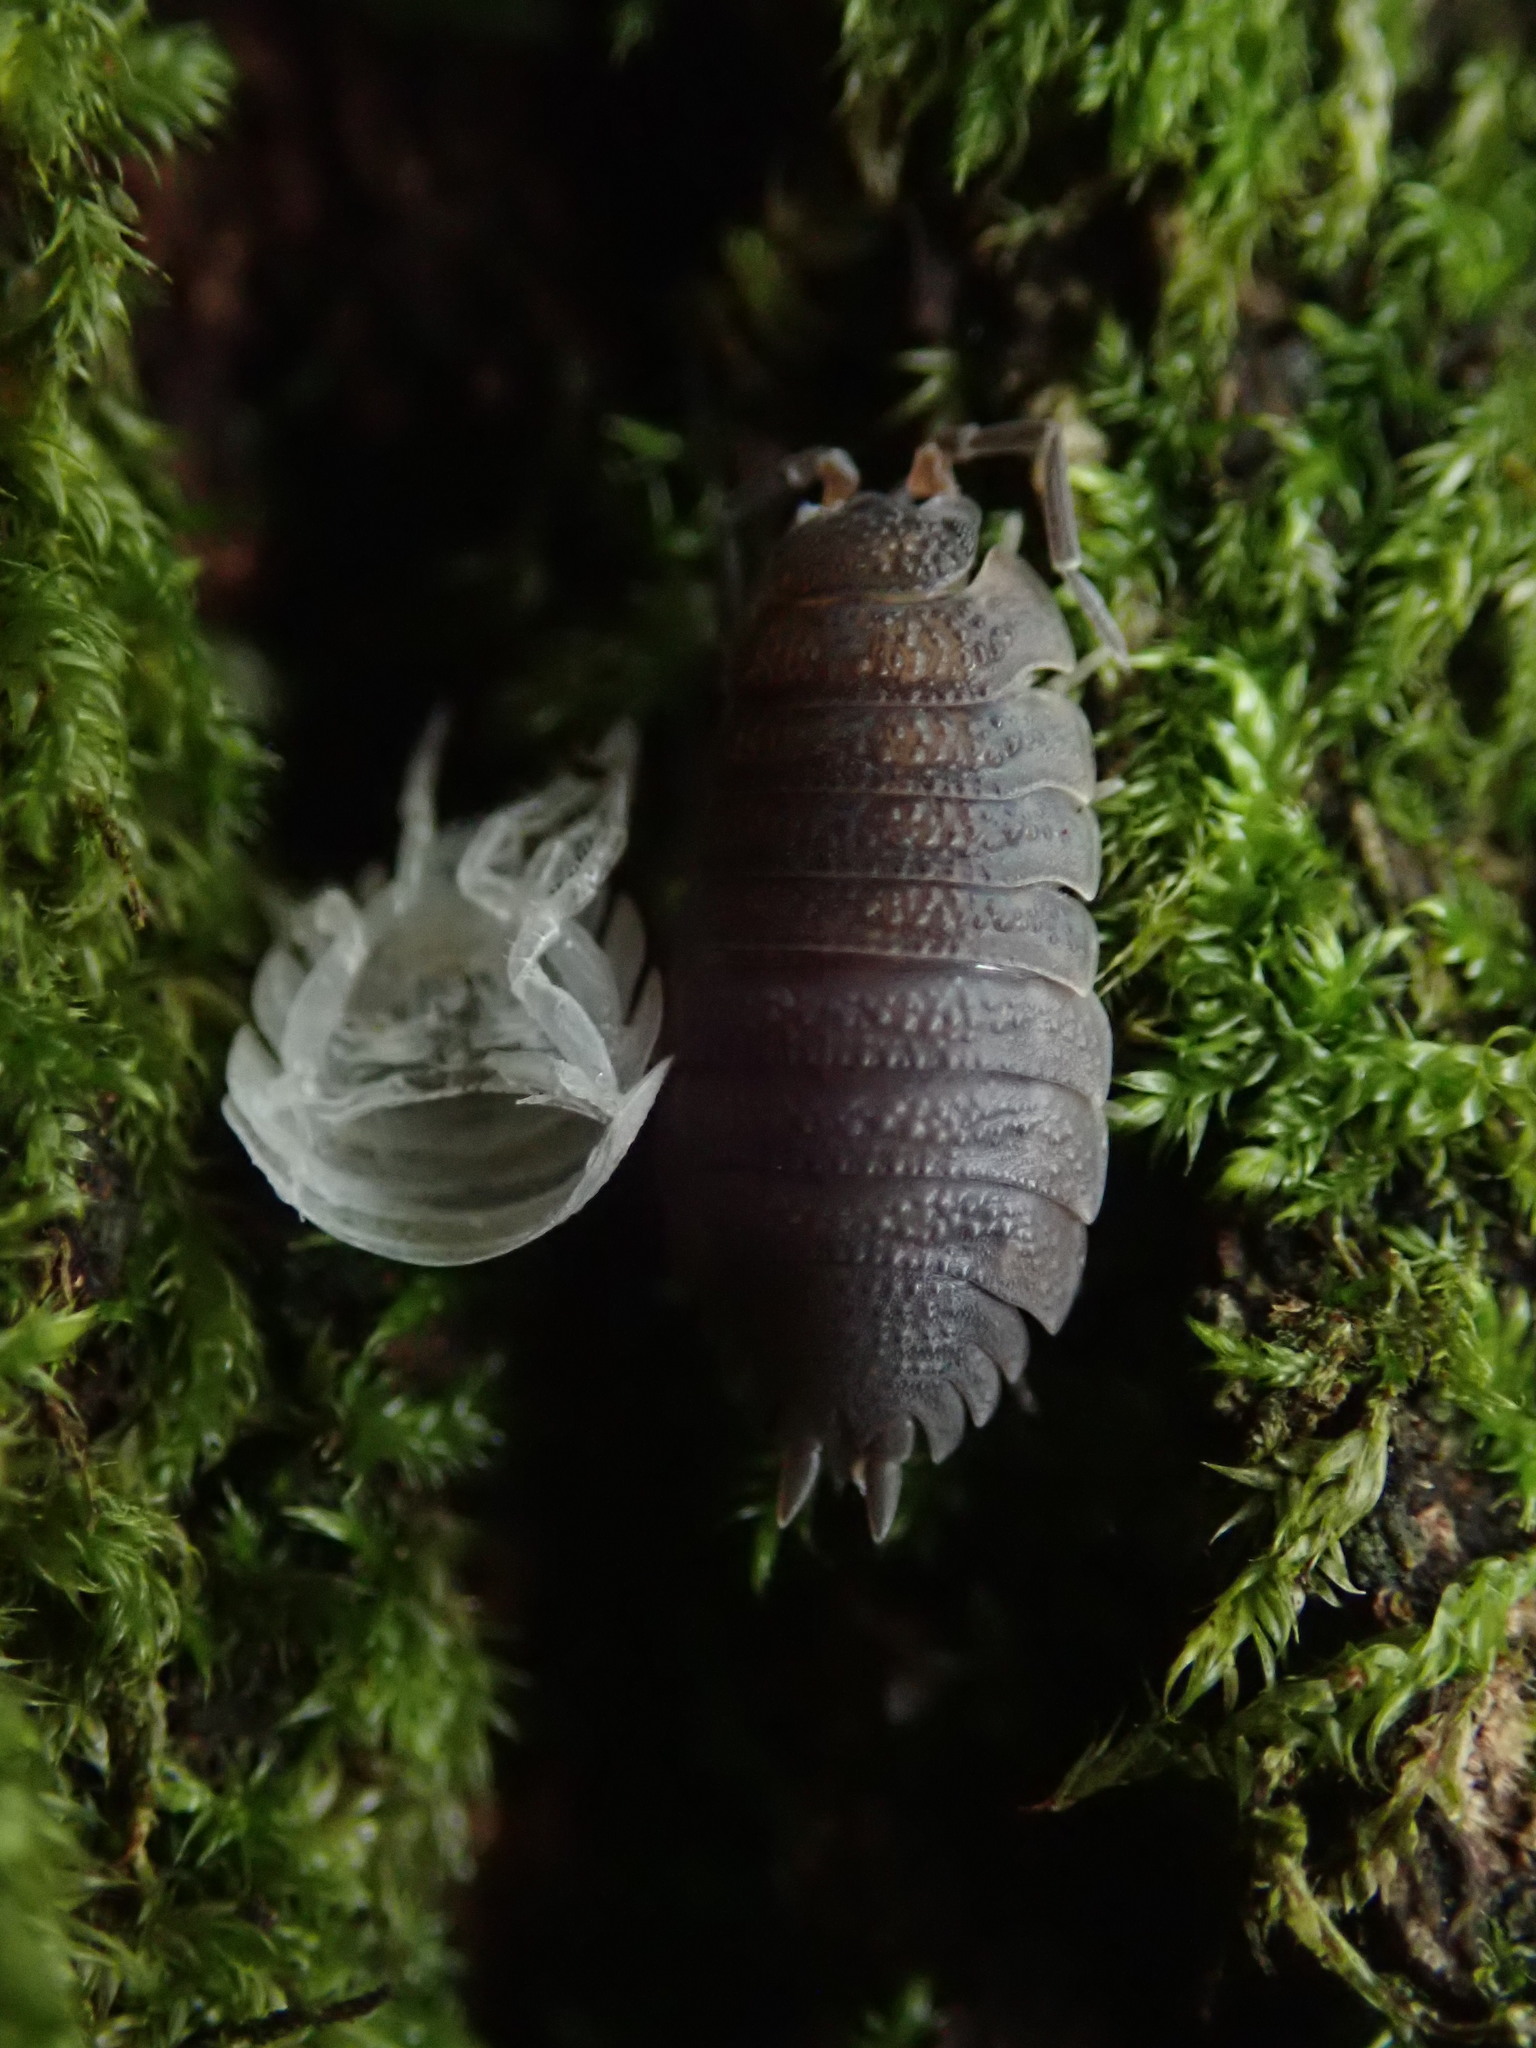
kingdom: Animalia
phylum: Arthropoda
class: Malacostraca
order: Isopoda
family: Porcellionidae
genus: Porcellio
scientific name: Porcellio scaber
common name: Common rough woodlouse
